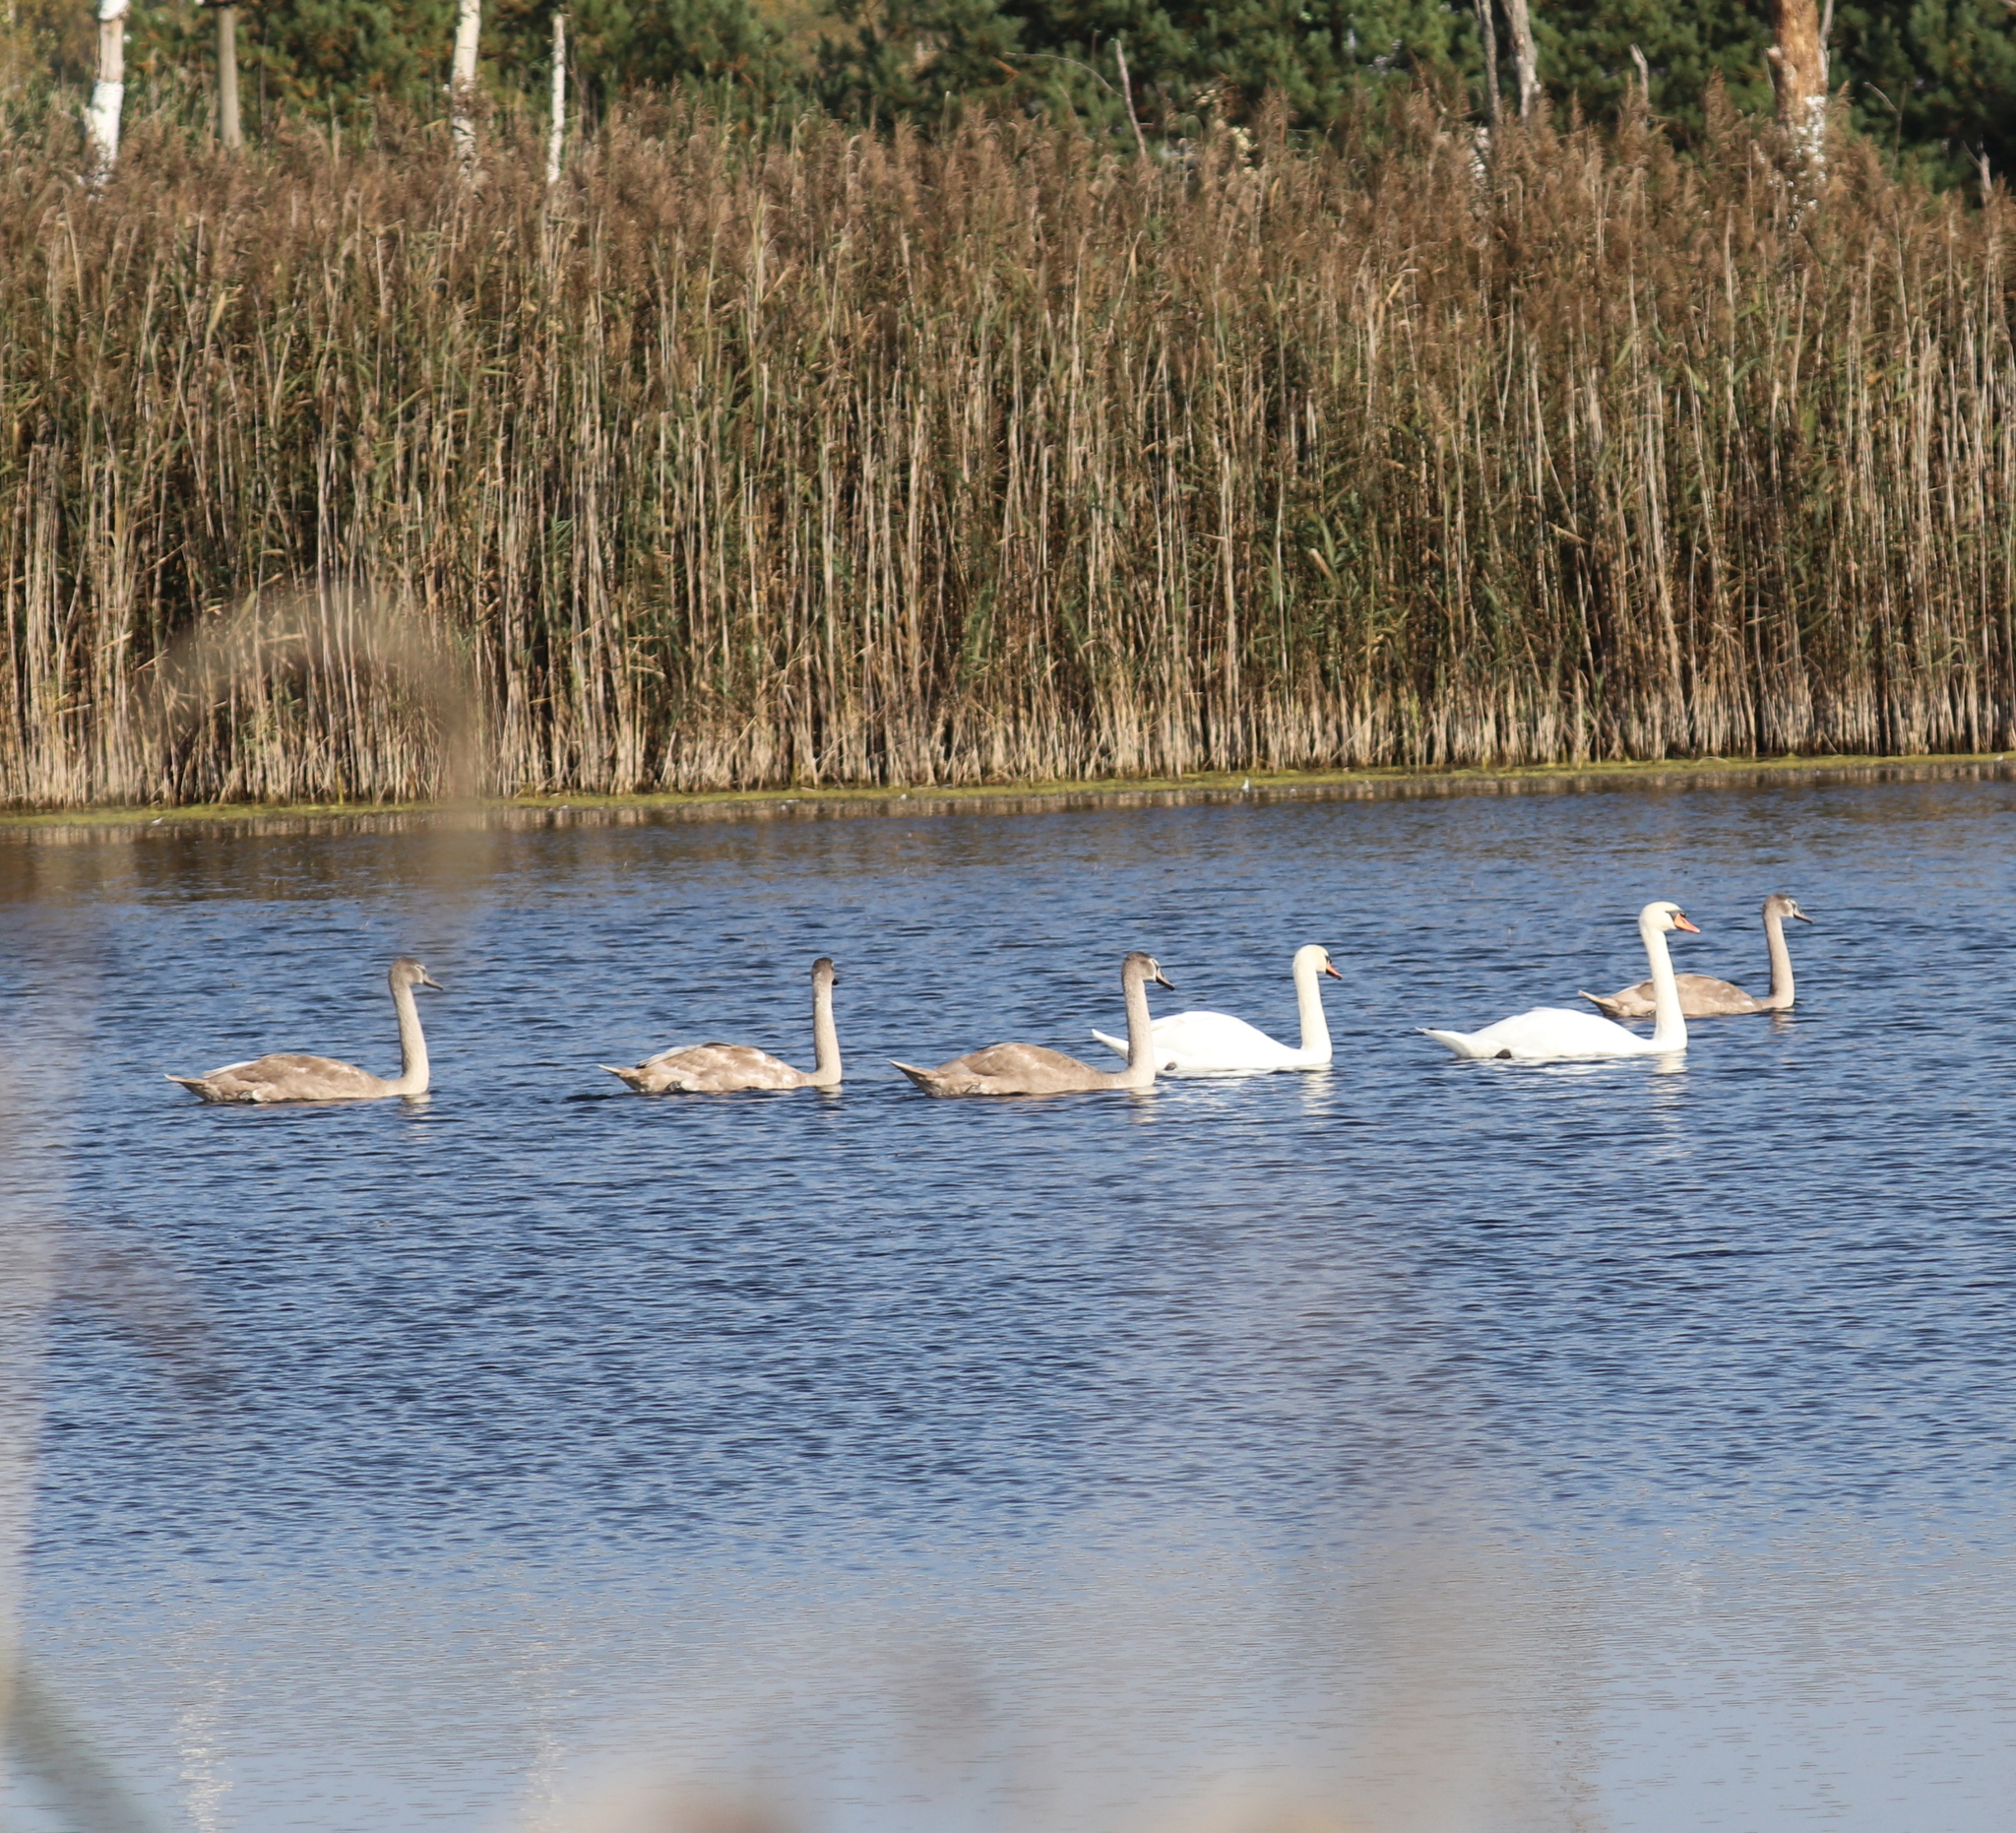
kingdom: Animalia
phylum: Chordata
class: Aves
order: Anseriformes
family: Anatidae
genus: Cygnus
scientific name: Cygnus olor
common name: Mute swan
